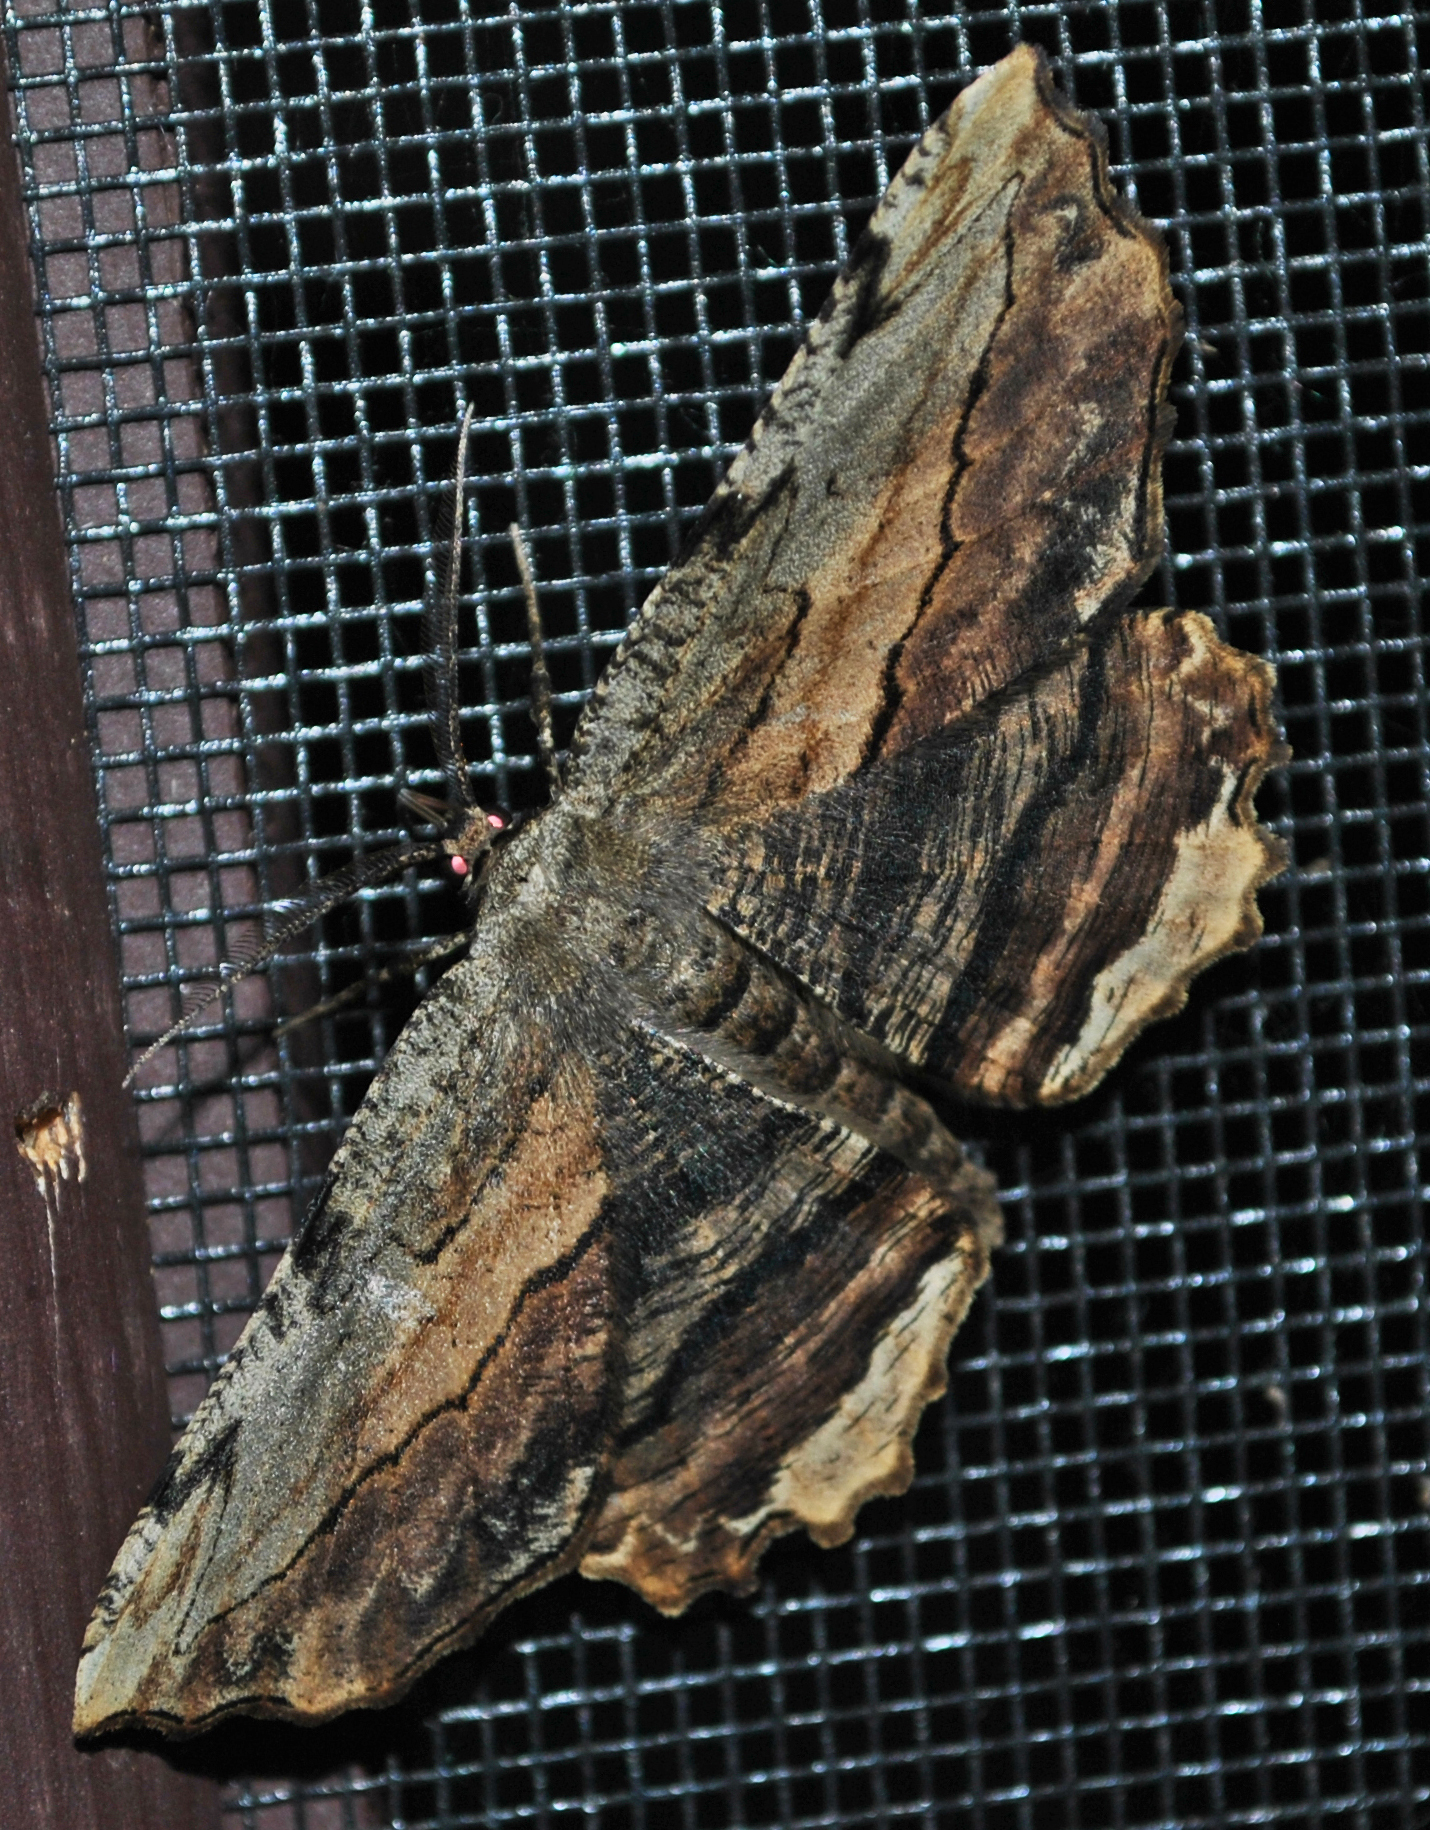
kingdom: Animalia
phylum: Arthropoda
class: Insecta
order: Lepidoptera
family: Geometridae
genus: Lytrosis
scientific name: Lytrosis unitaria
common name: Common lytrosis
